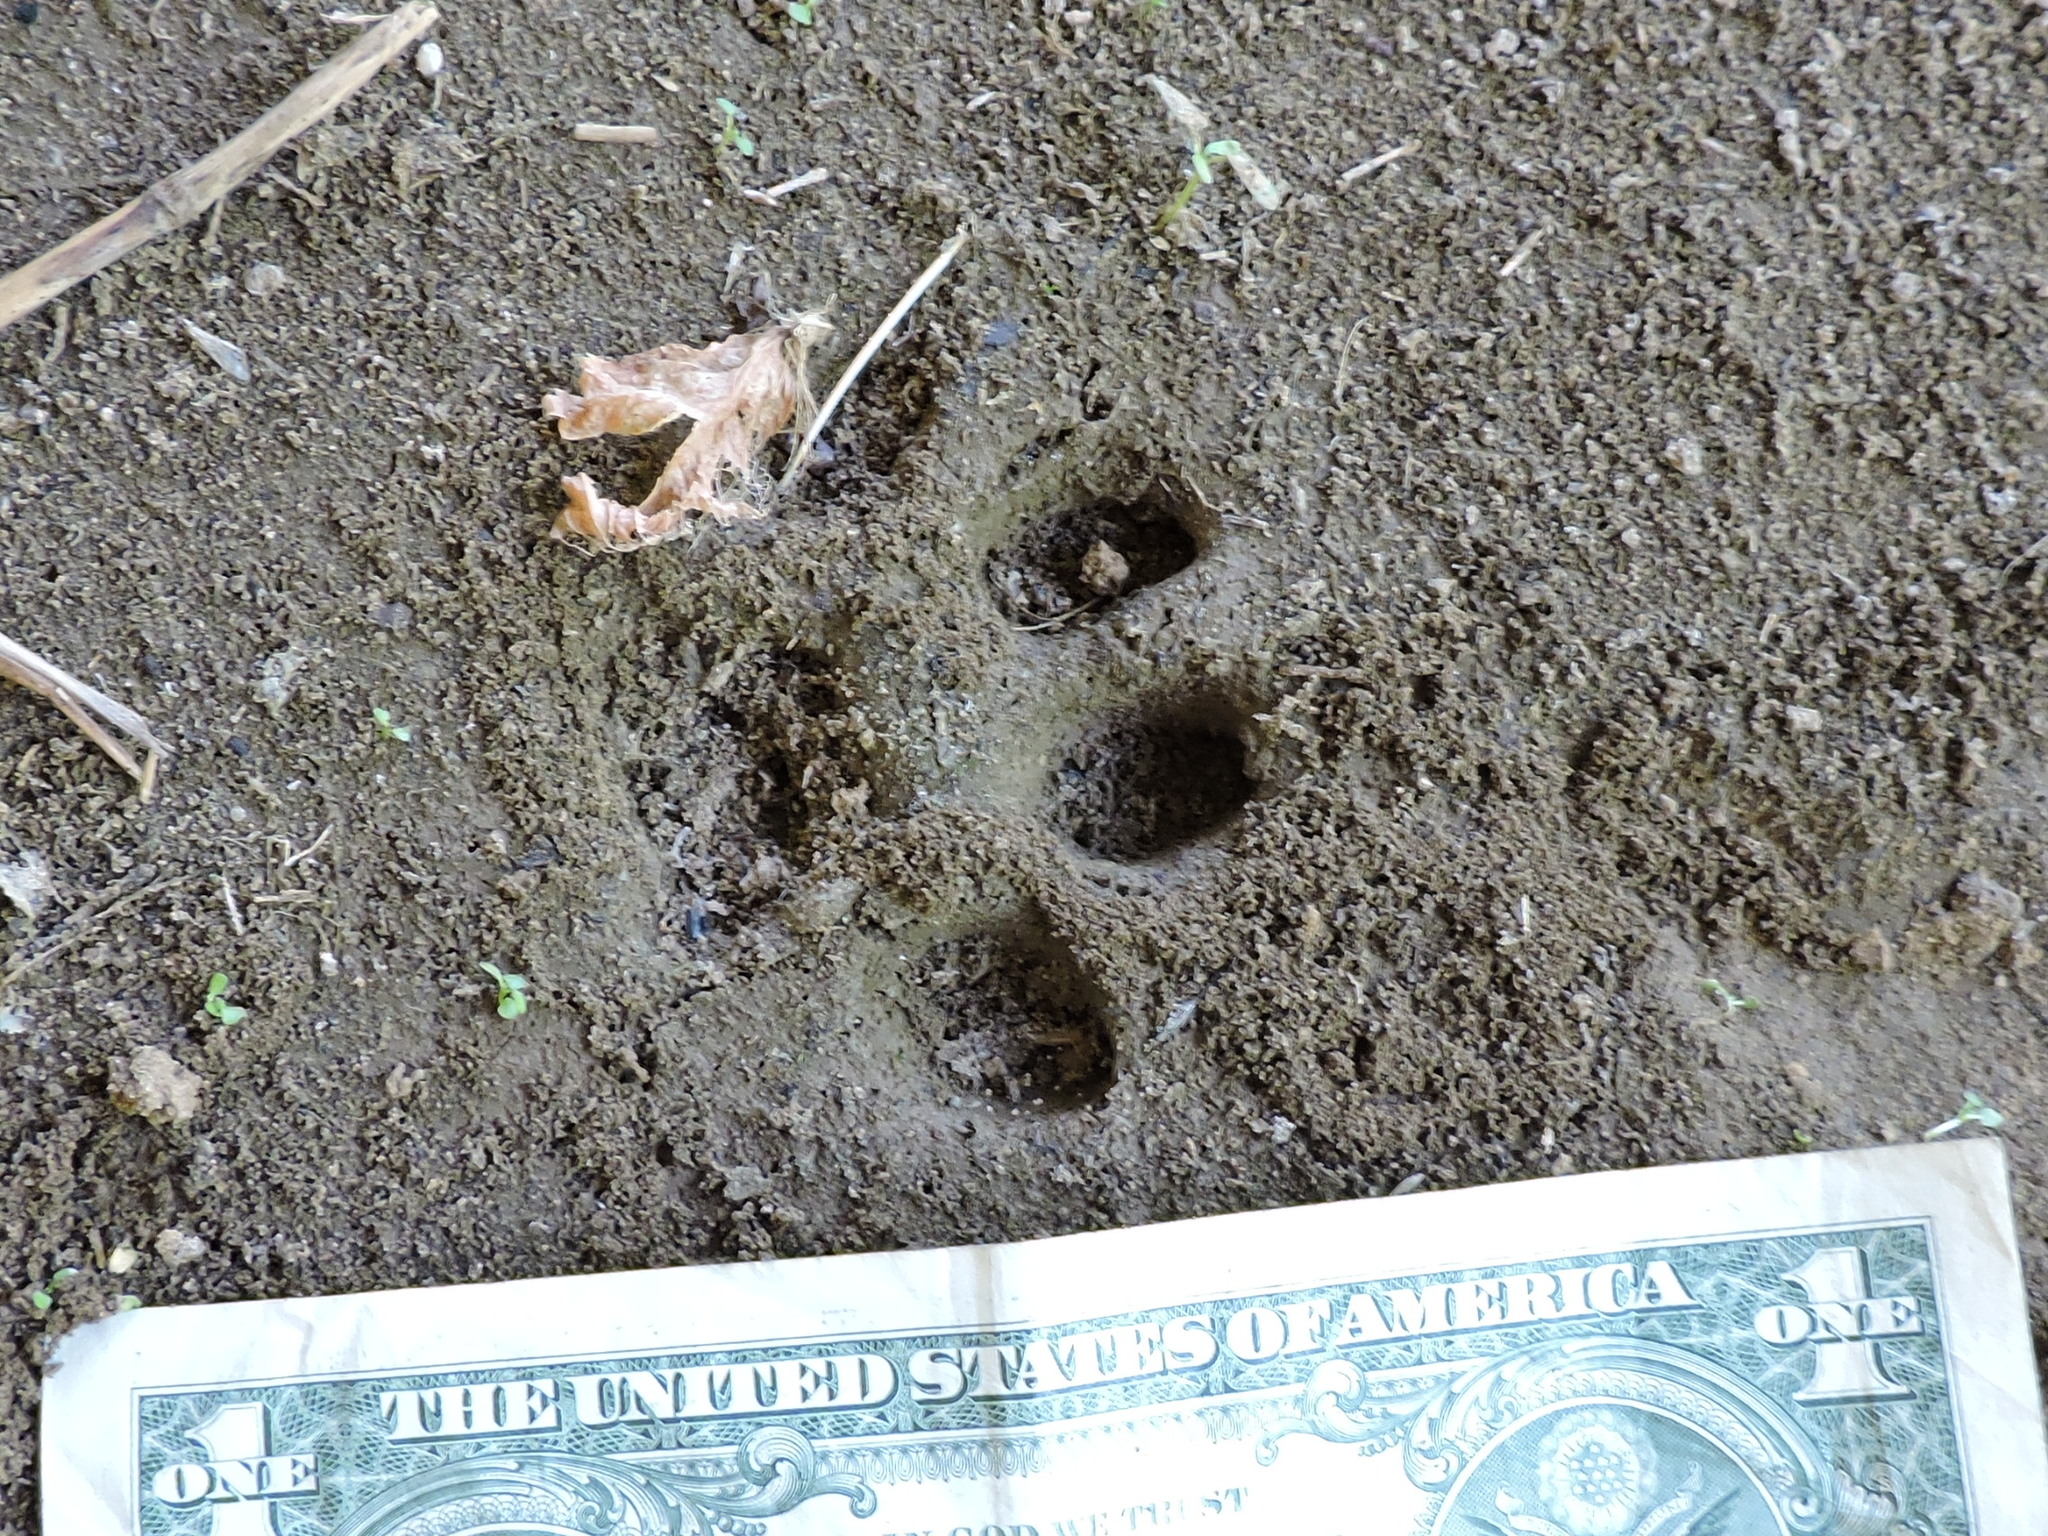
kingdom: Animalia
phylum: Chordata
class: Mammalia
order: Carnivora
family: Felidae
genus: Lynx
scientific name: Lynx rufus
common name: Bobcat
